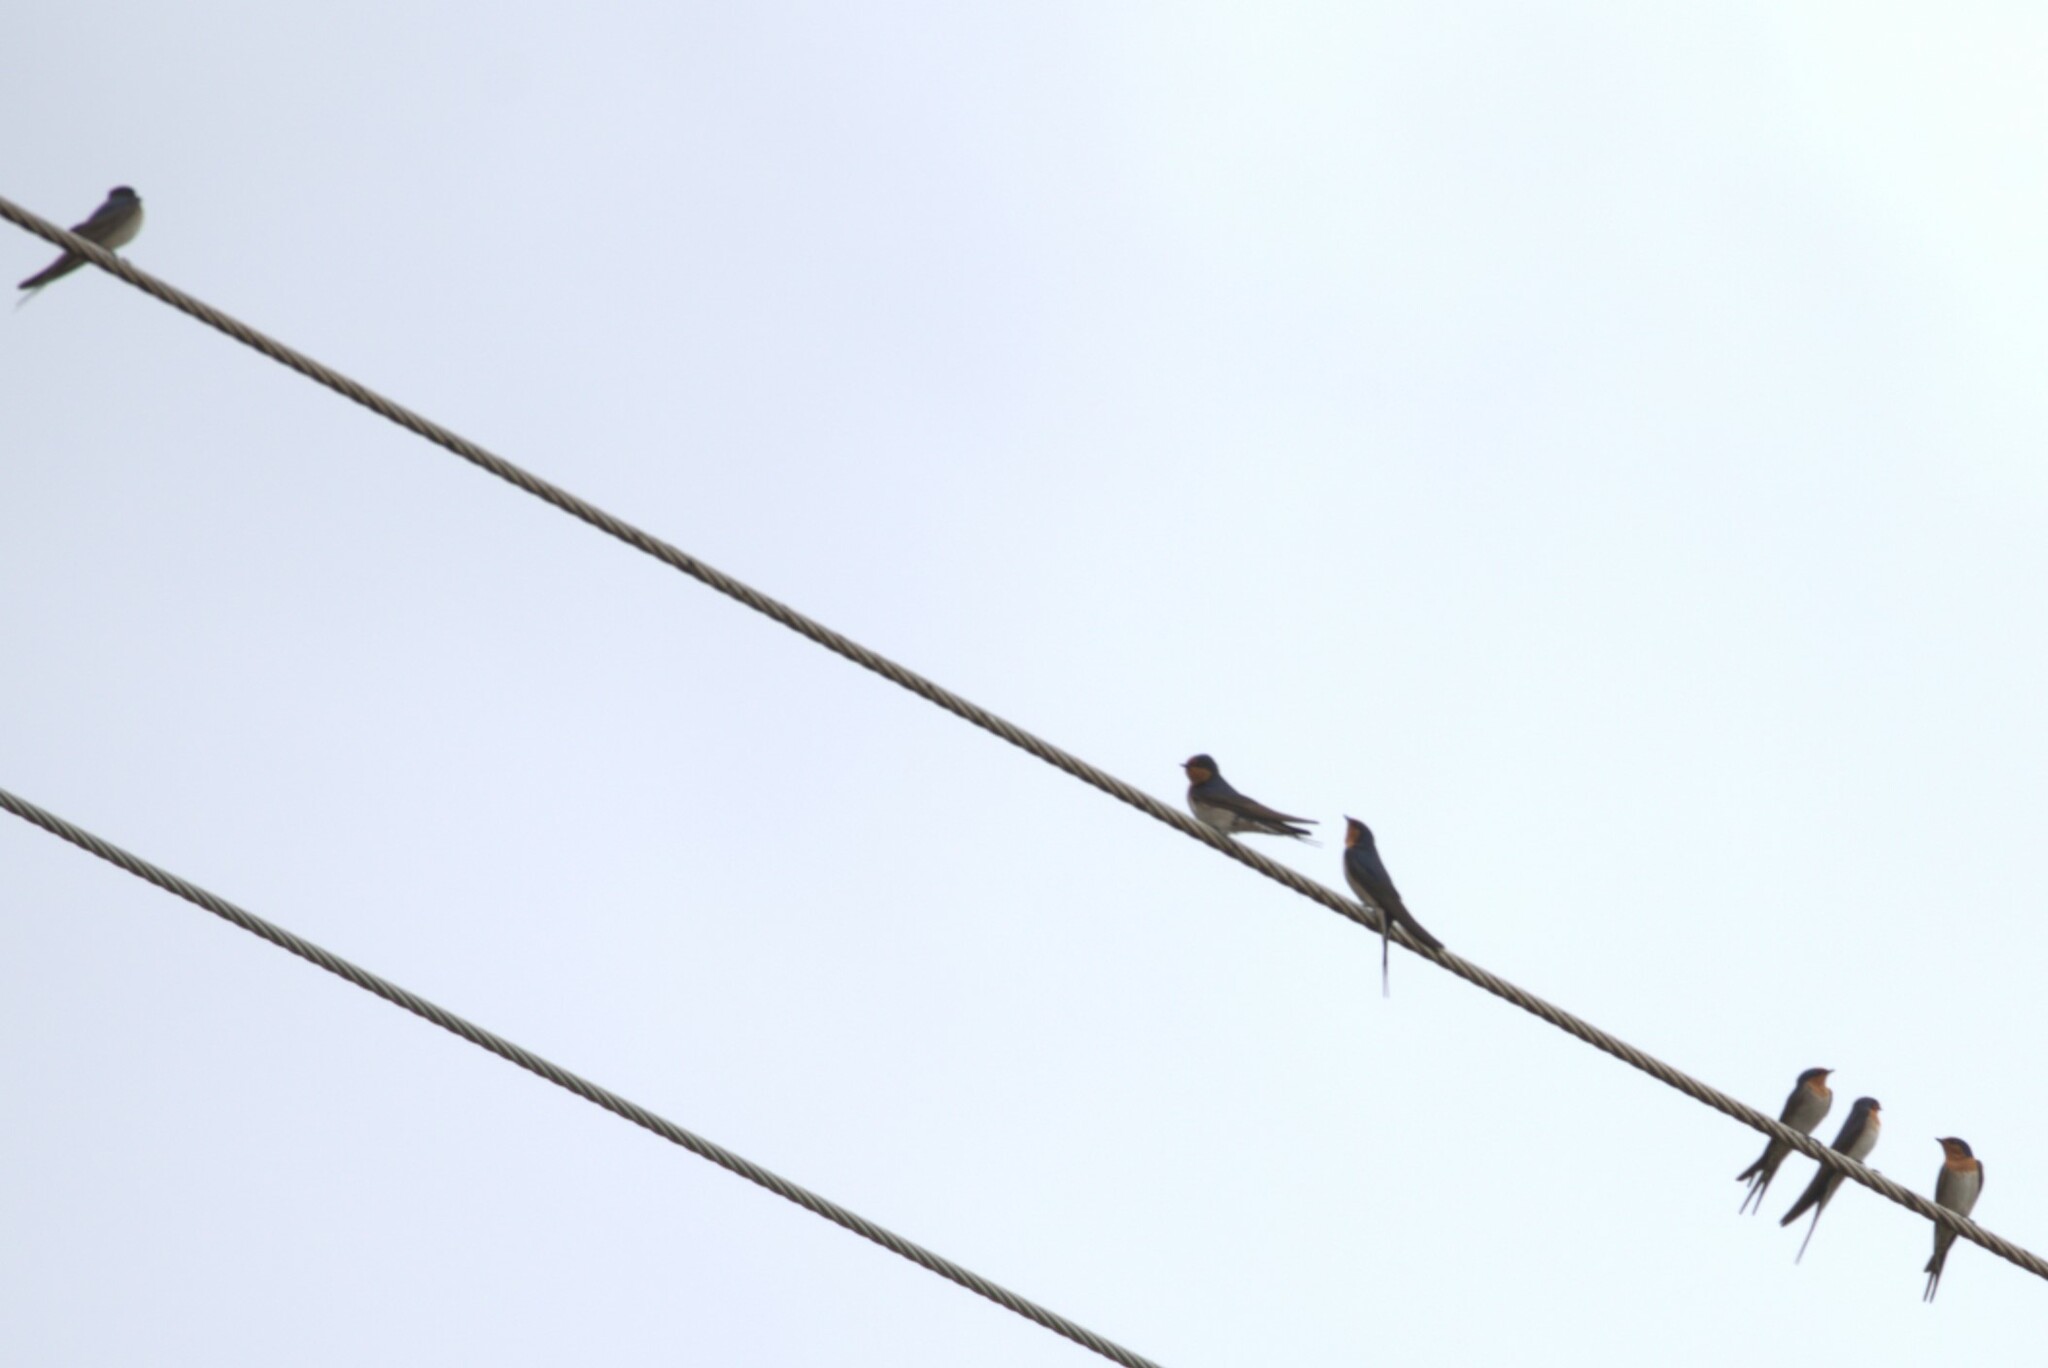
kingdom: Animalia
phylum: Chordata
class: Aves
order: Passeriformes
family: Hirundinidae
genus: Hirundo
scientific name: Hirundo neoxena
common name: Welcome swallow
